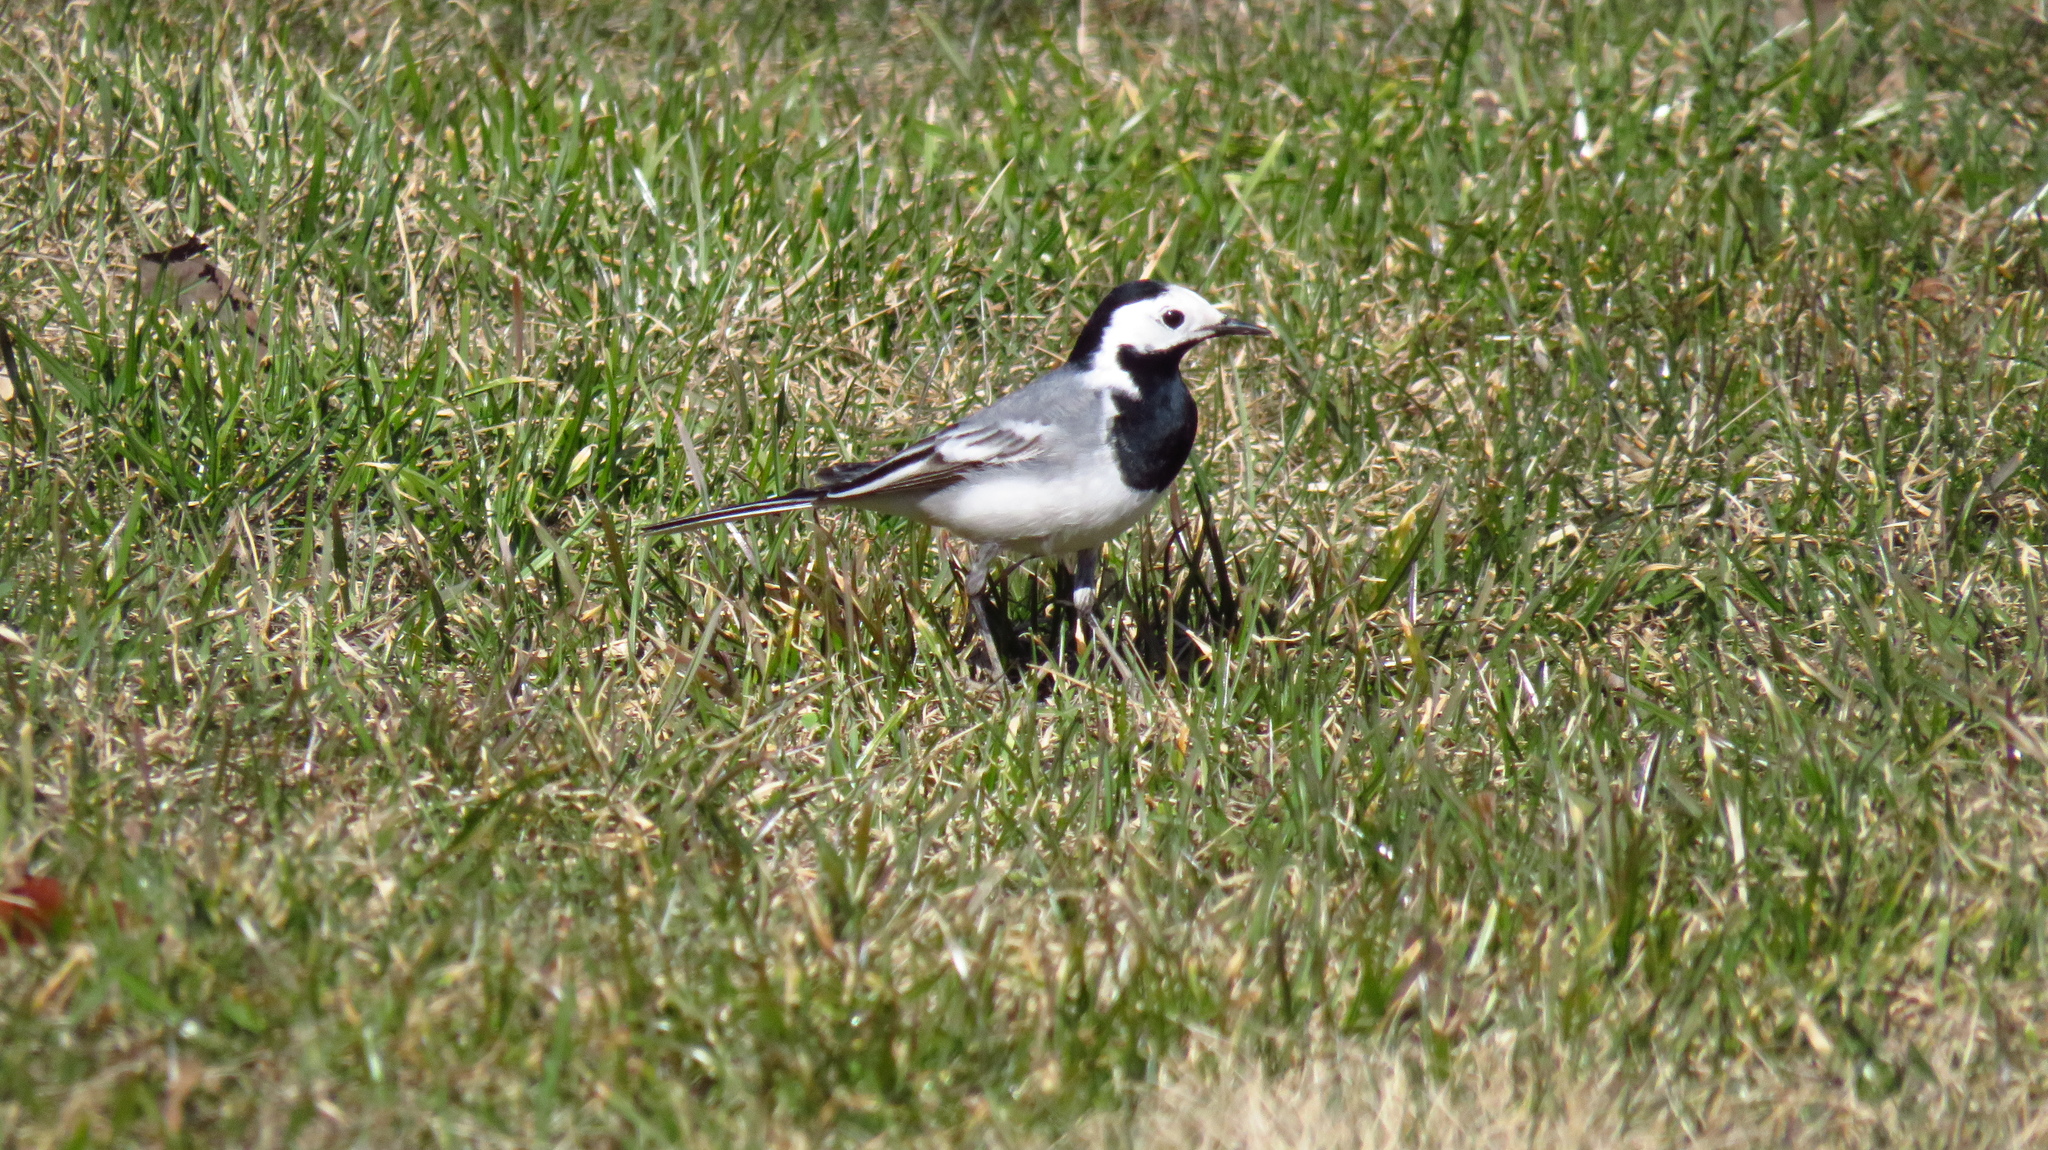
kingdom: Animalia
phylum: Chordata
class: Aves
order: Passeriformes
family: Motacillidae
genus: Motacilla
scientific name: Motacilla alba
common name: White wagtail
